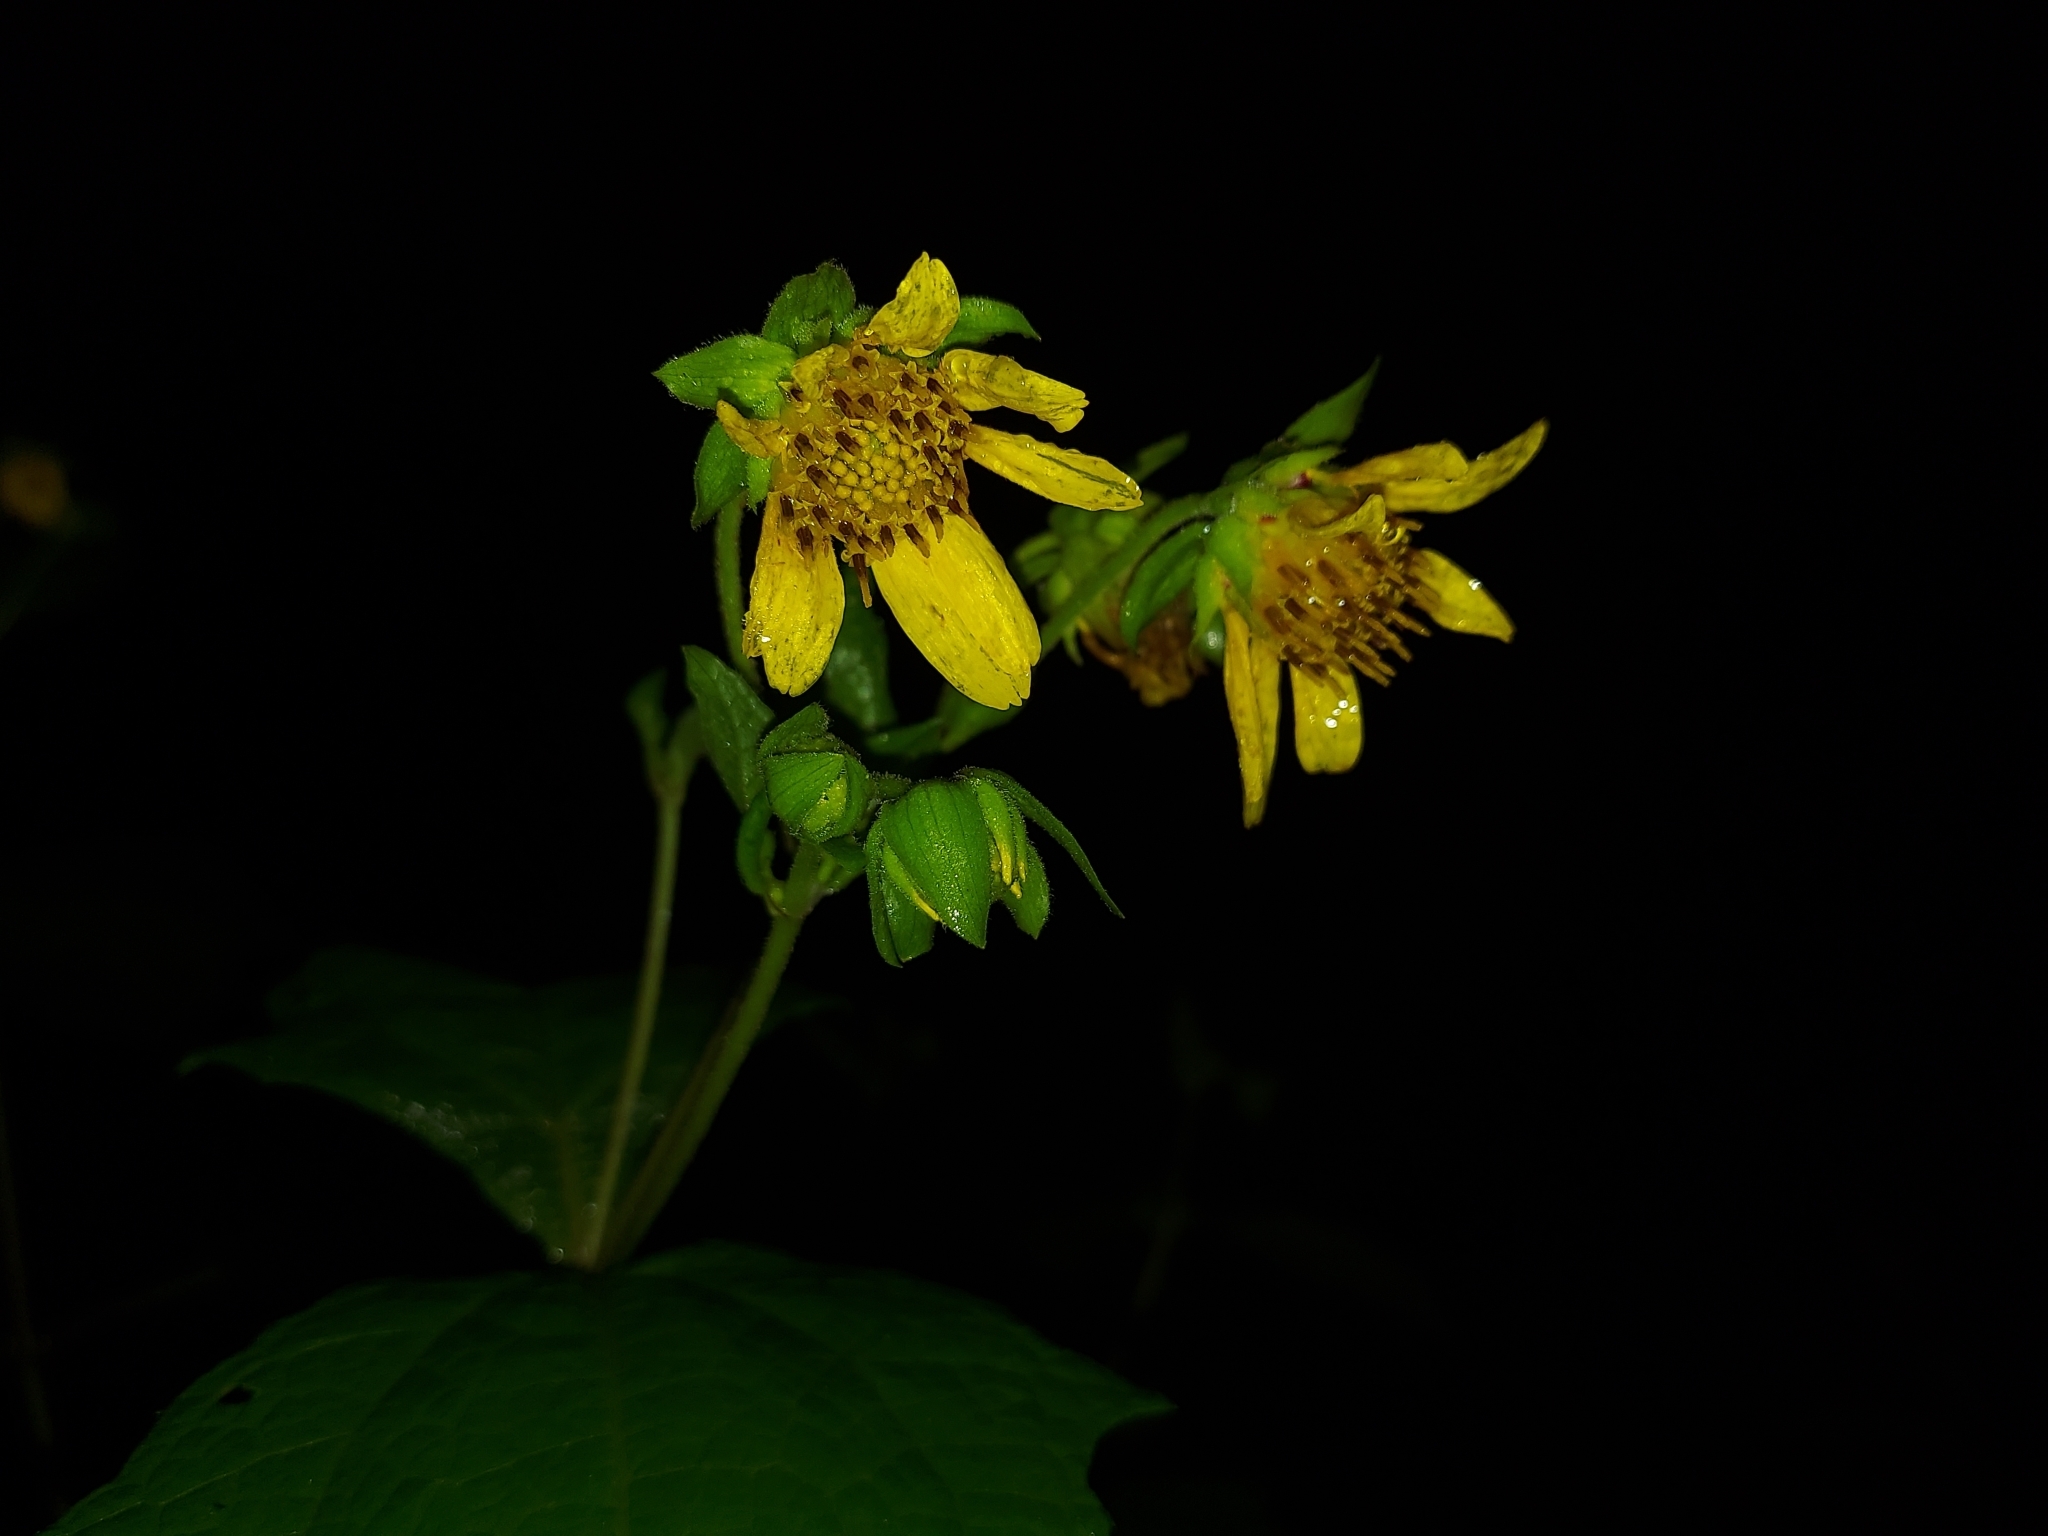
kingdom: Plantae
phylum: Tracheophyta
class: Magnoliopsida
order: Asterales
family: Asteraceae
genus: Smallanthus
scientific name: Smallanthus uvedalia
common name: Bear's-foot
